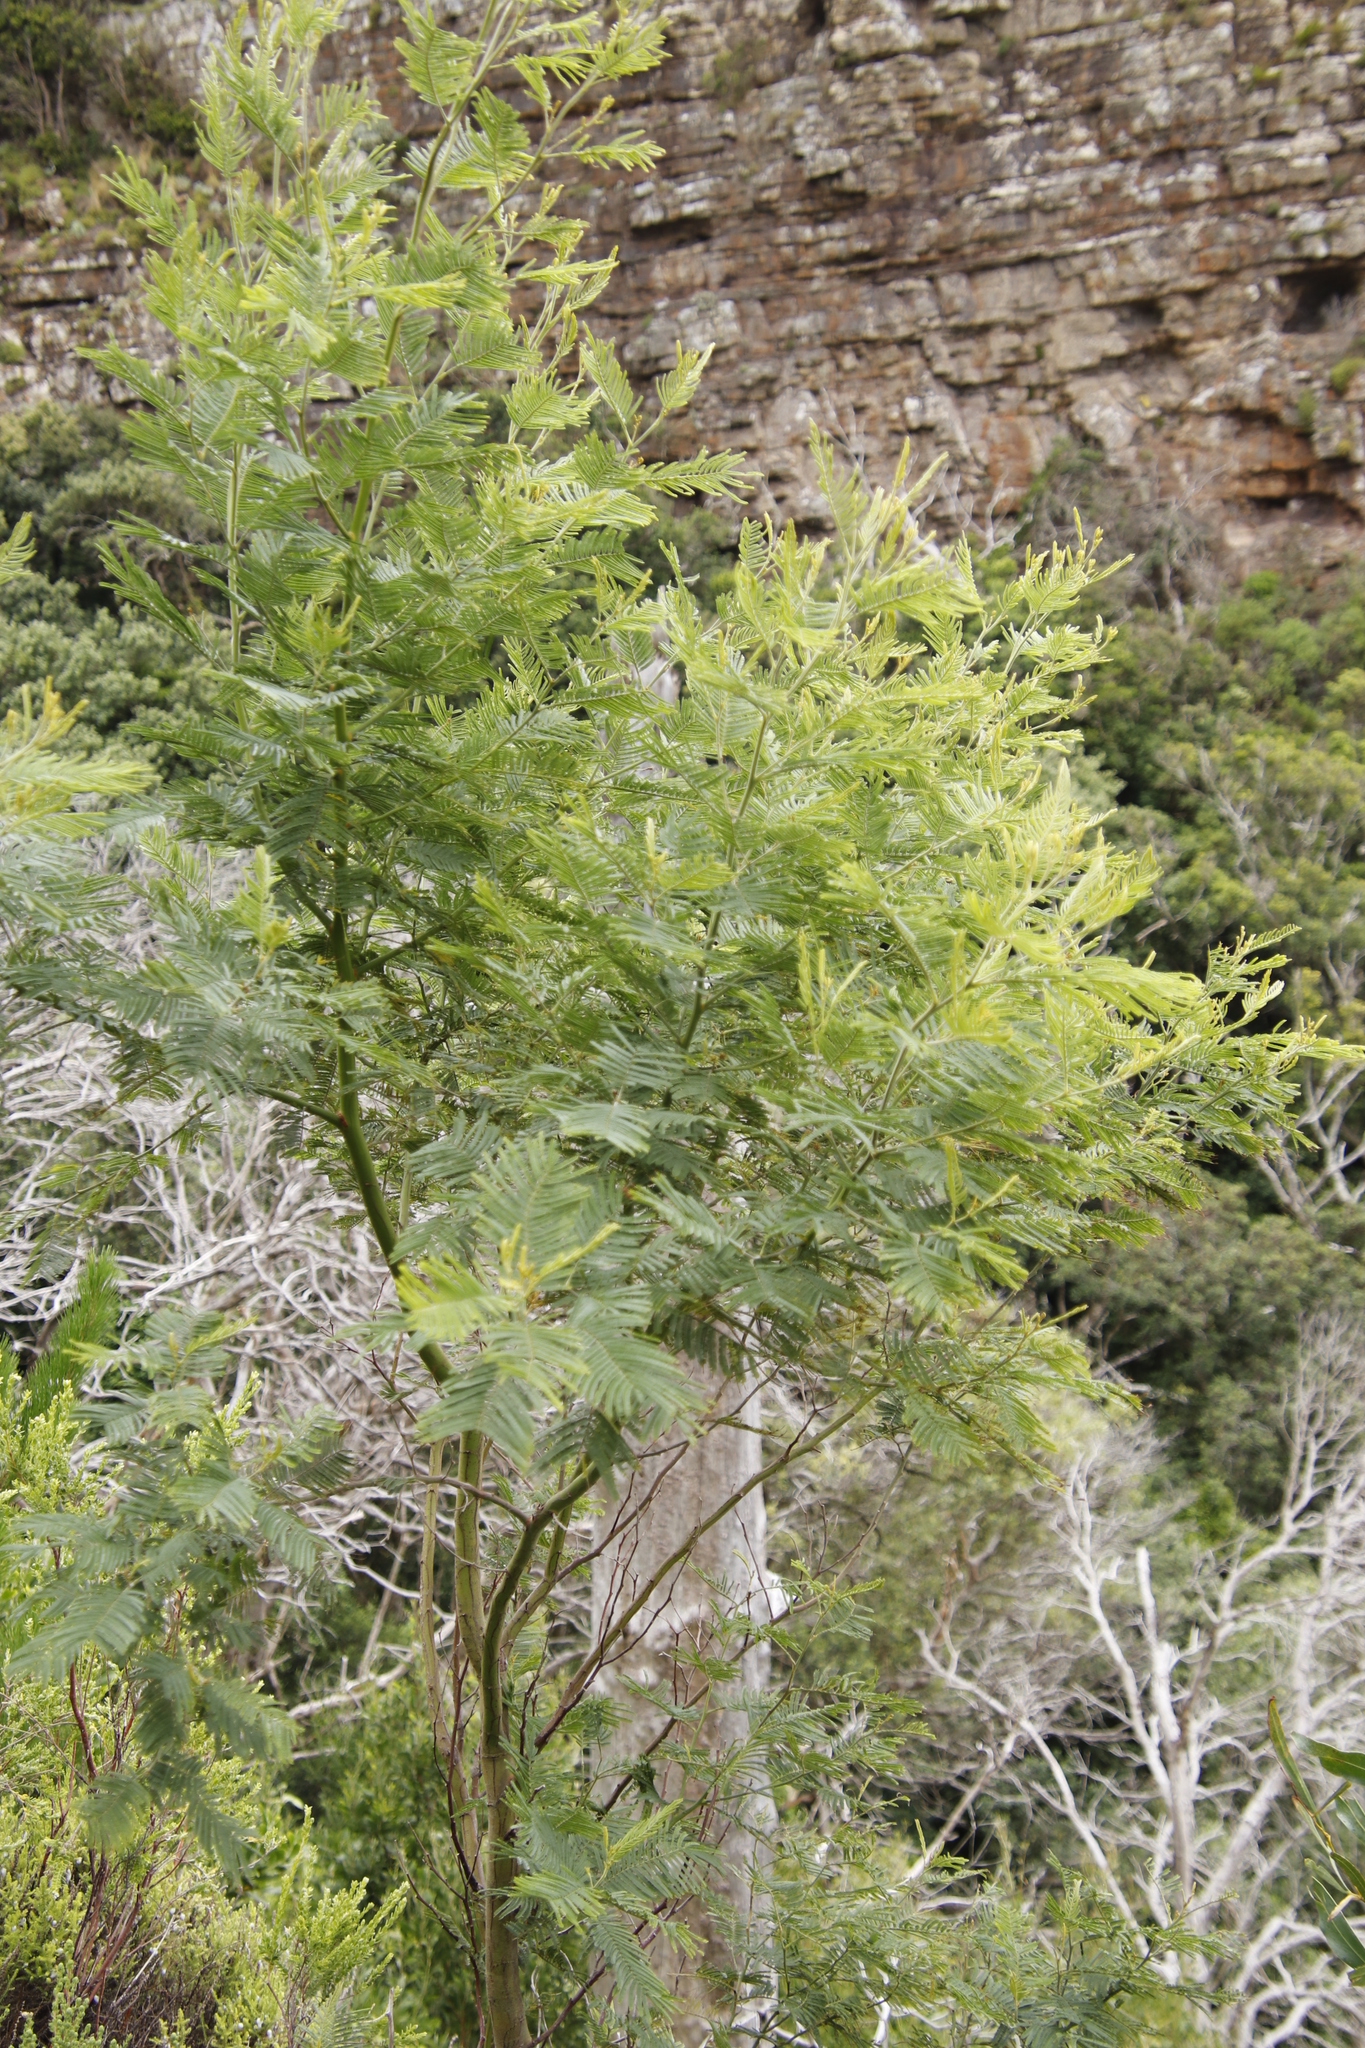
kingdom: Plantae
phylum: Tracheophyta
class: Magnoliopsida
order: Fabales
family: Fabaceae
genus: Acacia
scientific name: Acacia mearnsii
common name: Black wattle
